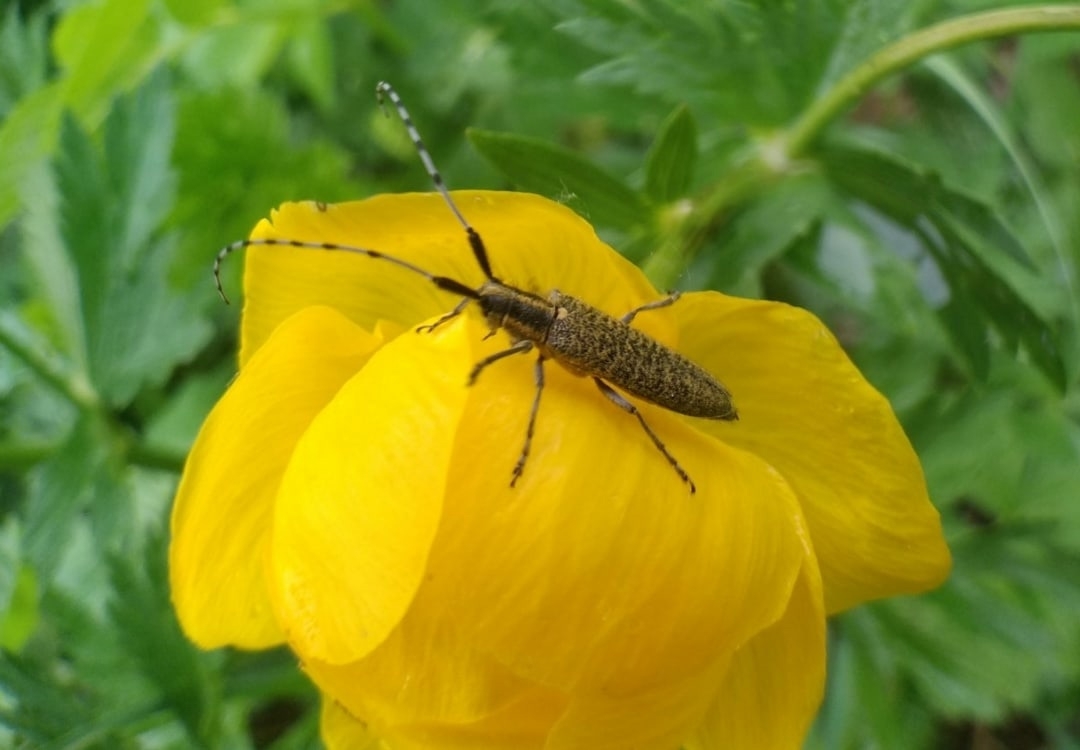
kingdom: Animalia
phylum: Arthropoda
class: Insecta
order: Coleoptera
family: Cerambycidae
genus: Agapanthia
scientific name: Agapanthia villosoviridescens
